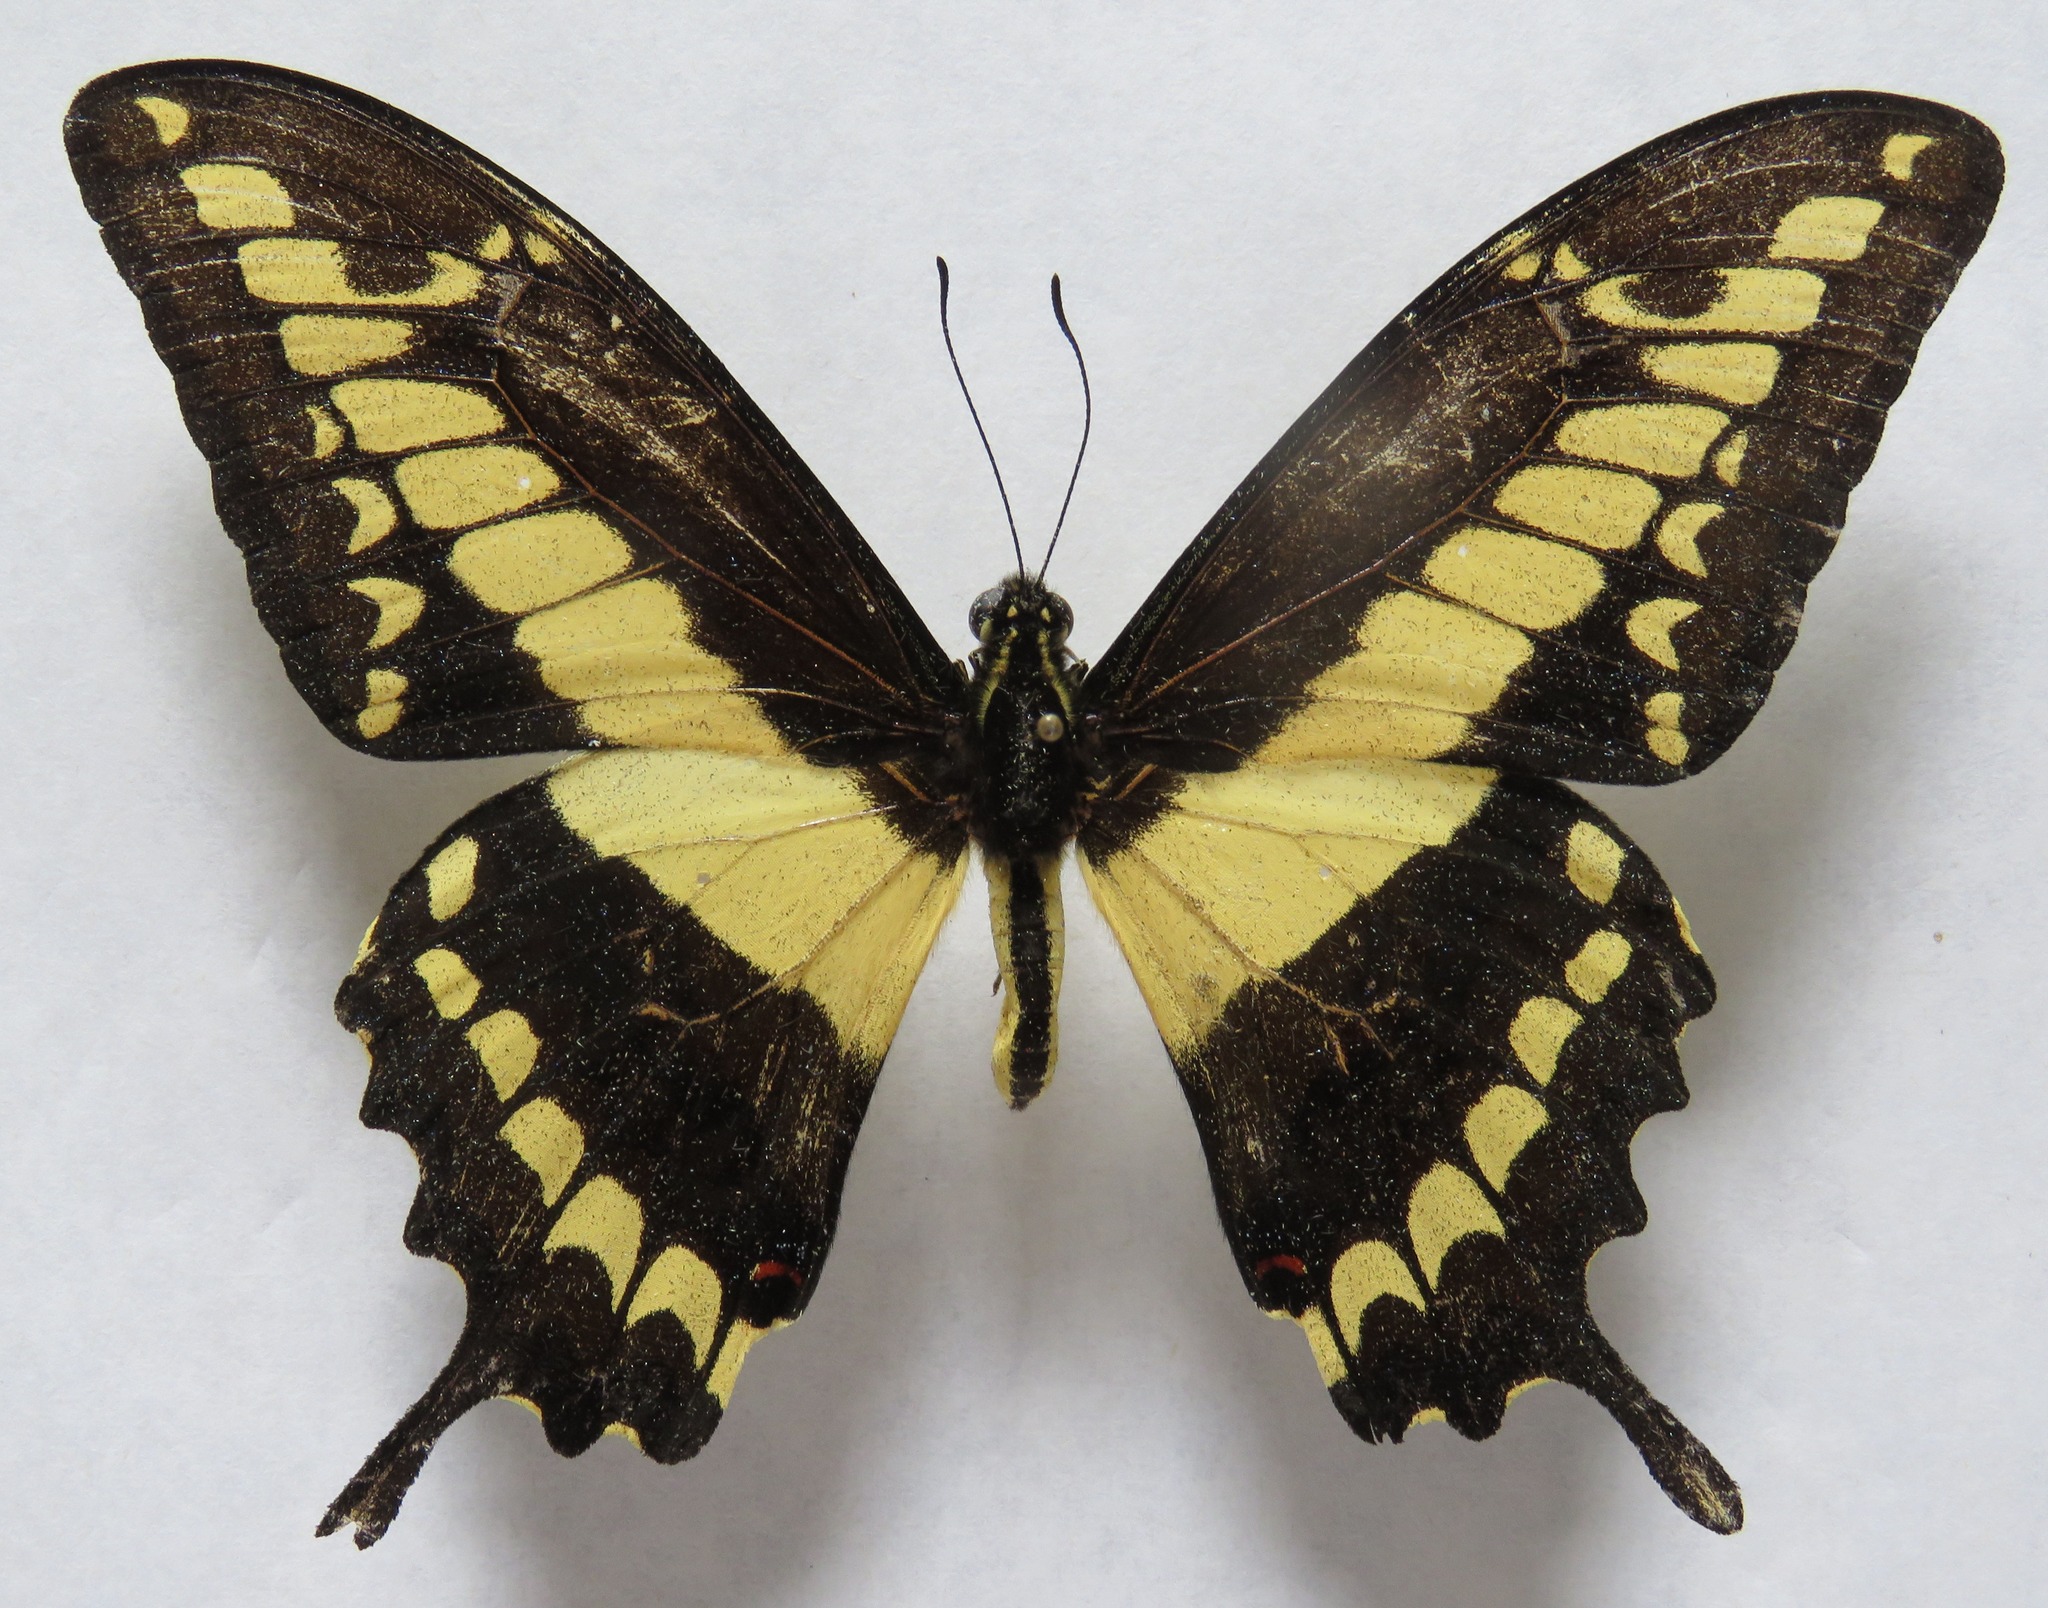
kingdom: Animalia
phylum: Arthropoda
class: Insecta
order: Lepidoptera
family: Papilionidae
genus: Papilio
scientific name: Papilio thoas
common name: King swallowtail
